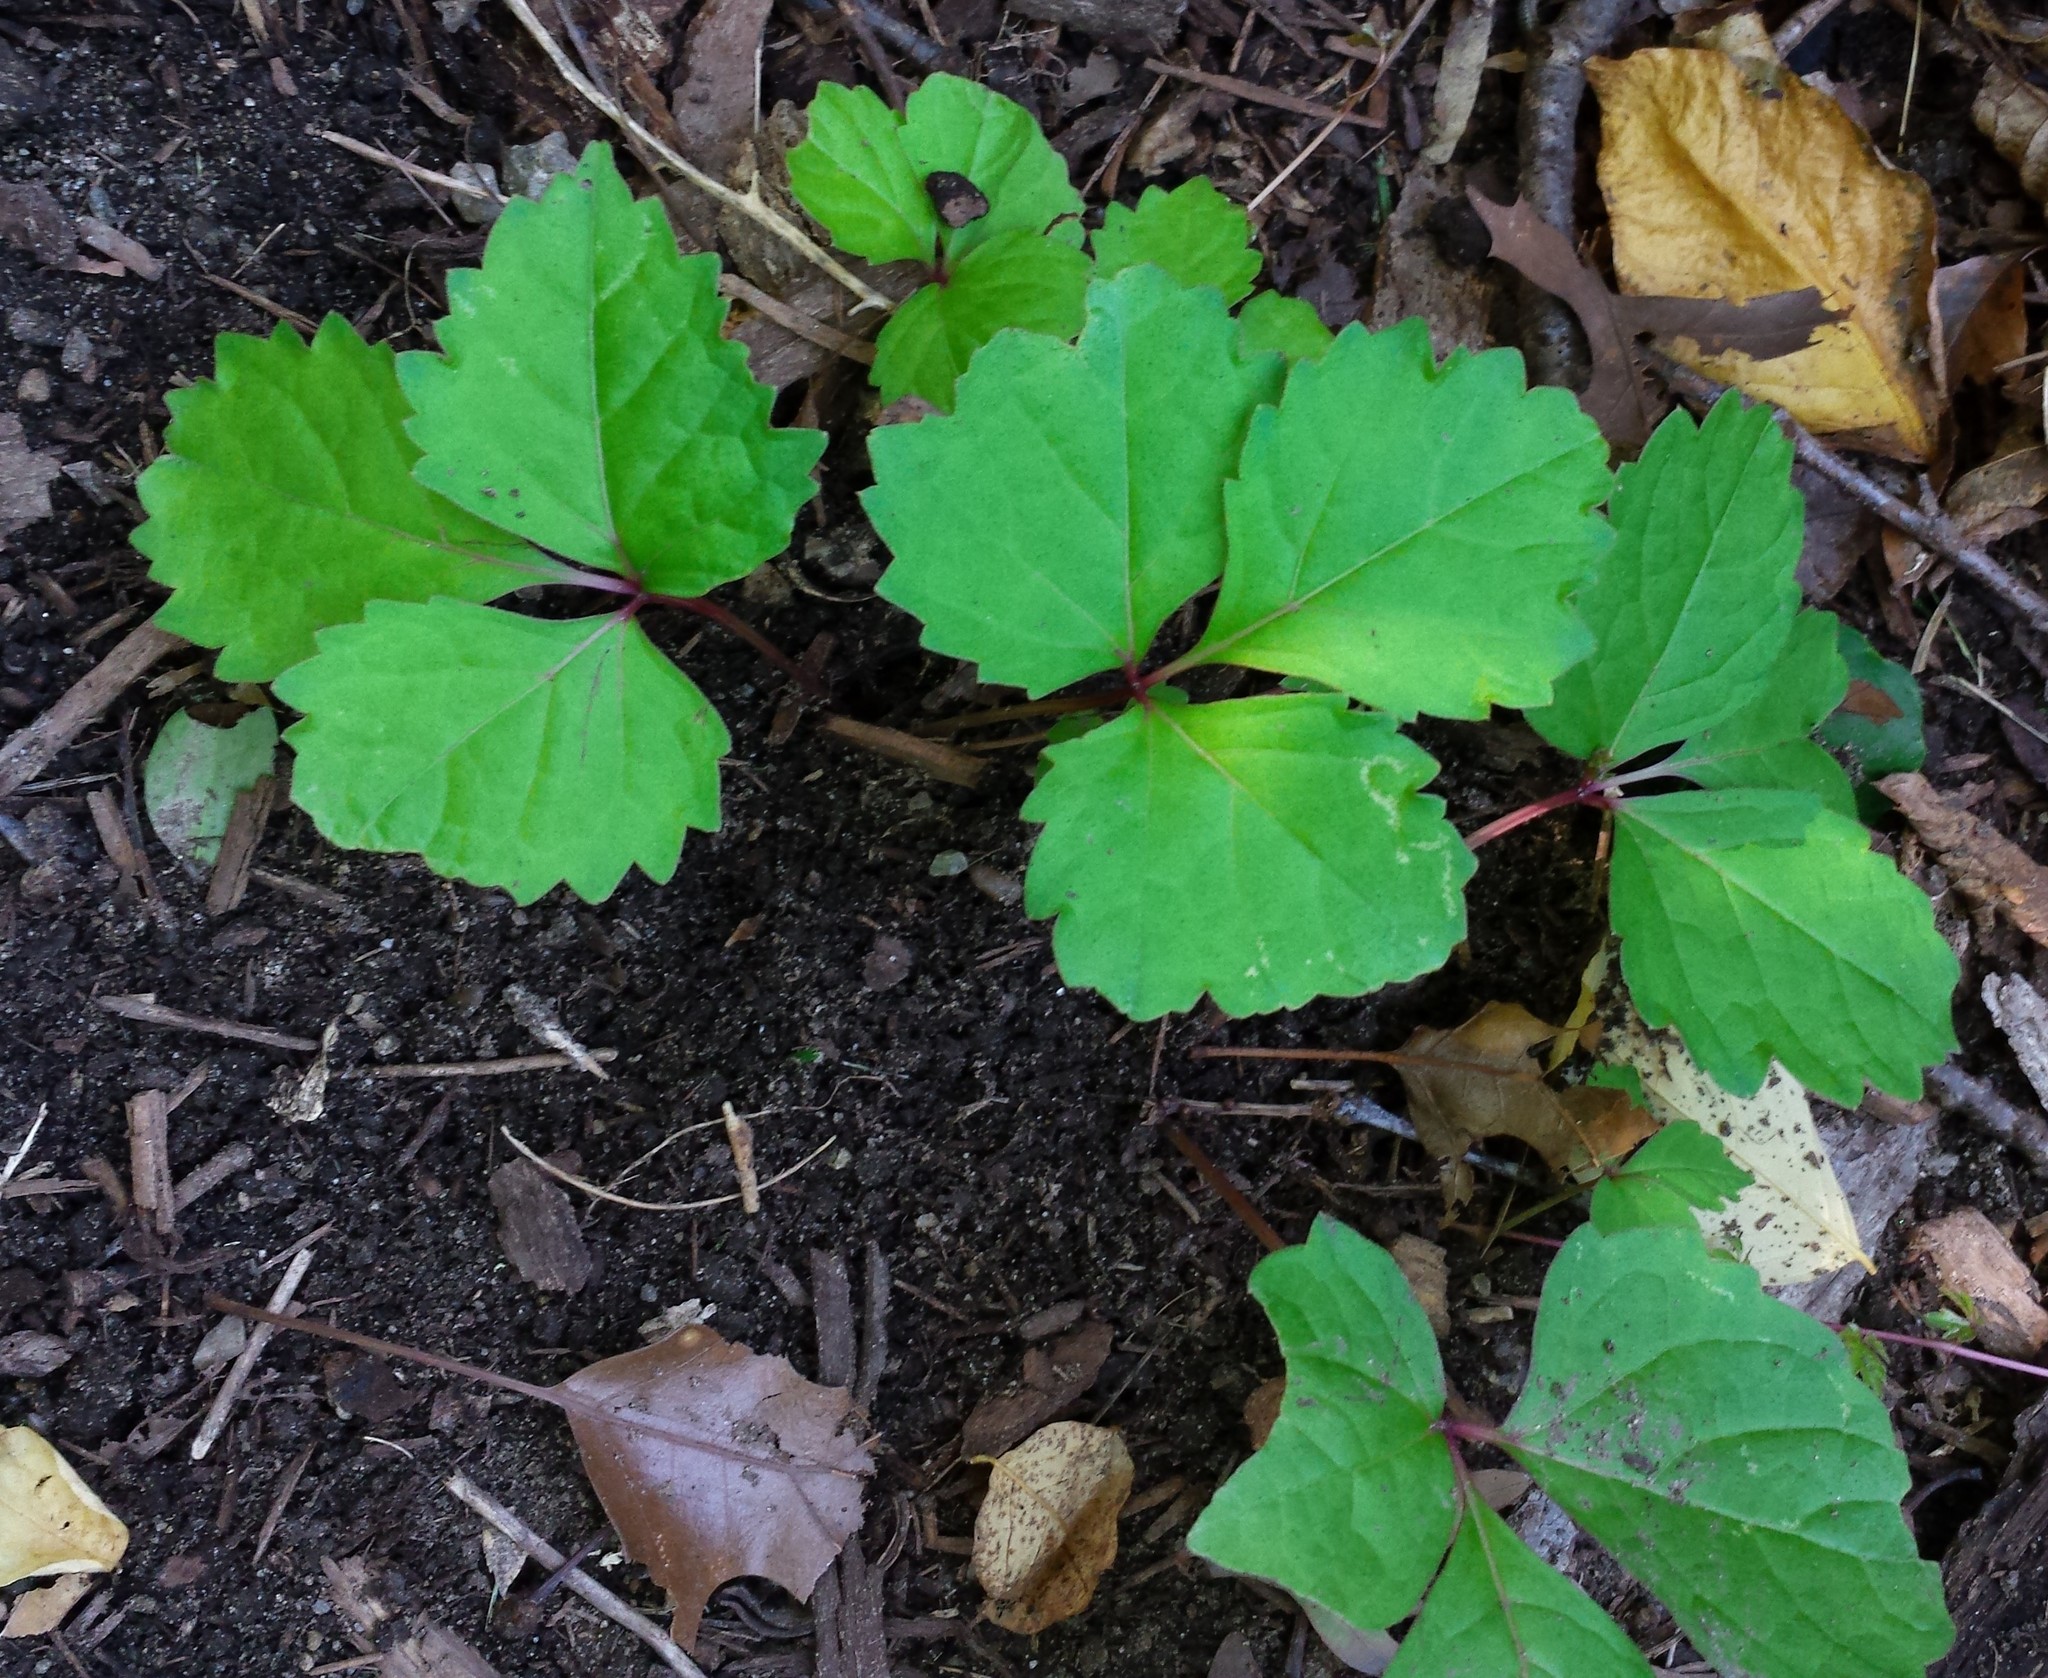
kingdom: Plantae
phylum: Tracheophyta
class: Magnoliopsida
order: Vitales
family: Vitaceae
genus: Parthenocissus
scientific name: Parthenocissus tricuspidata
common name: Boston ivy
